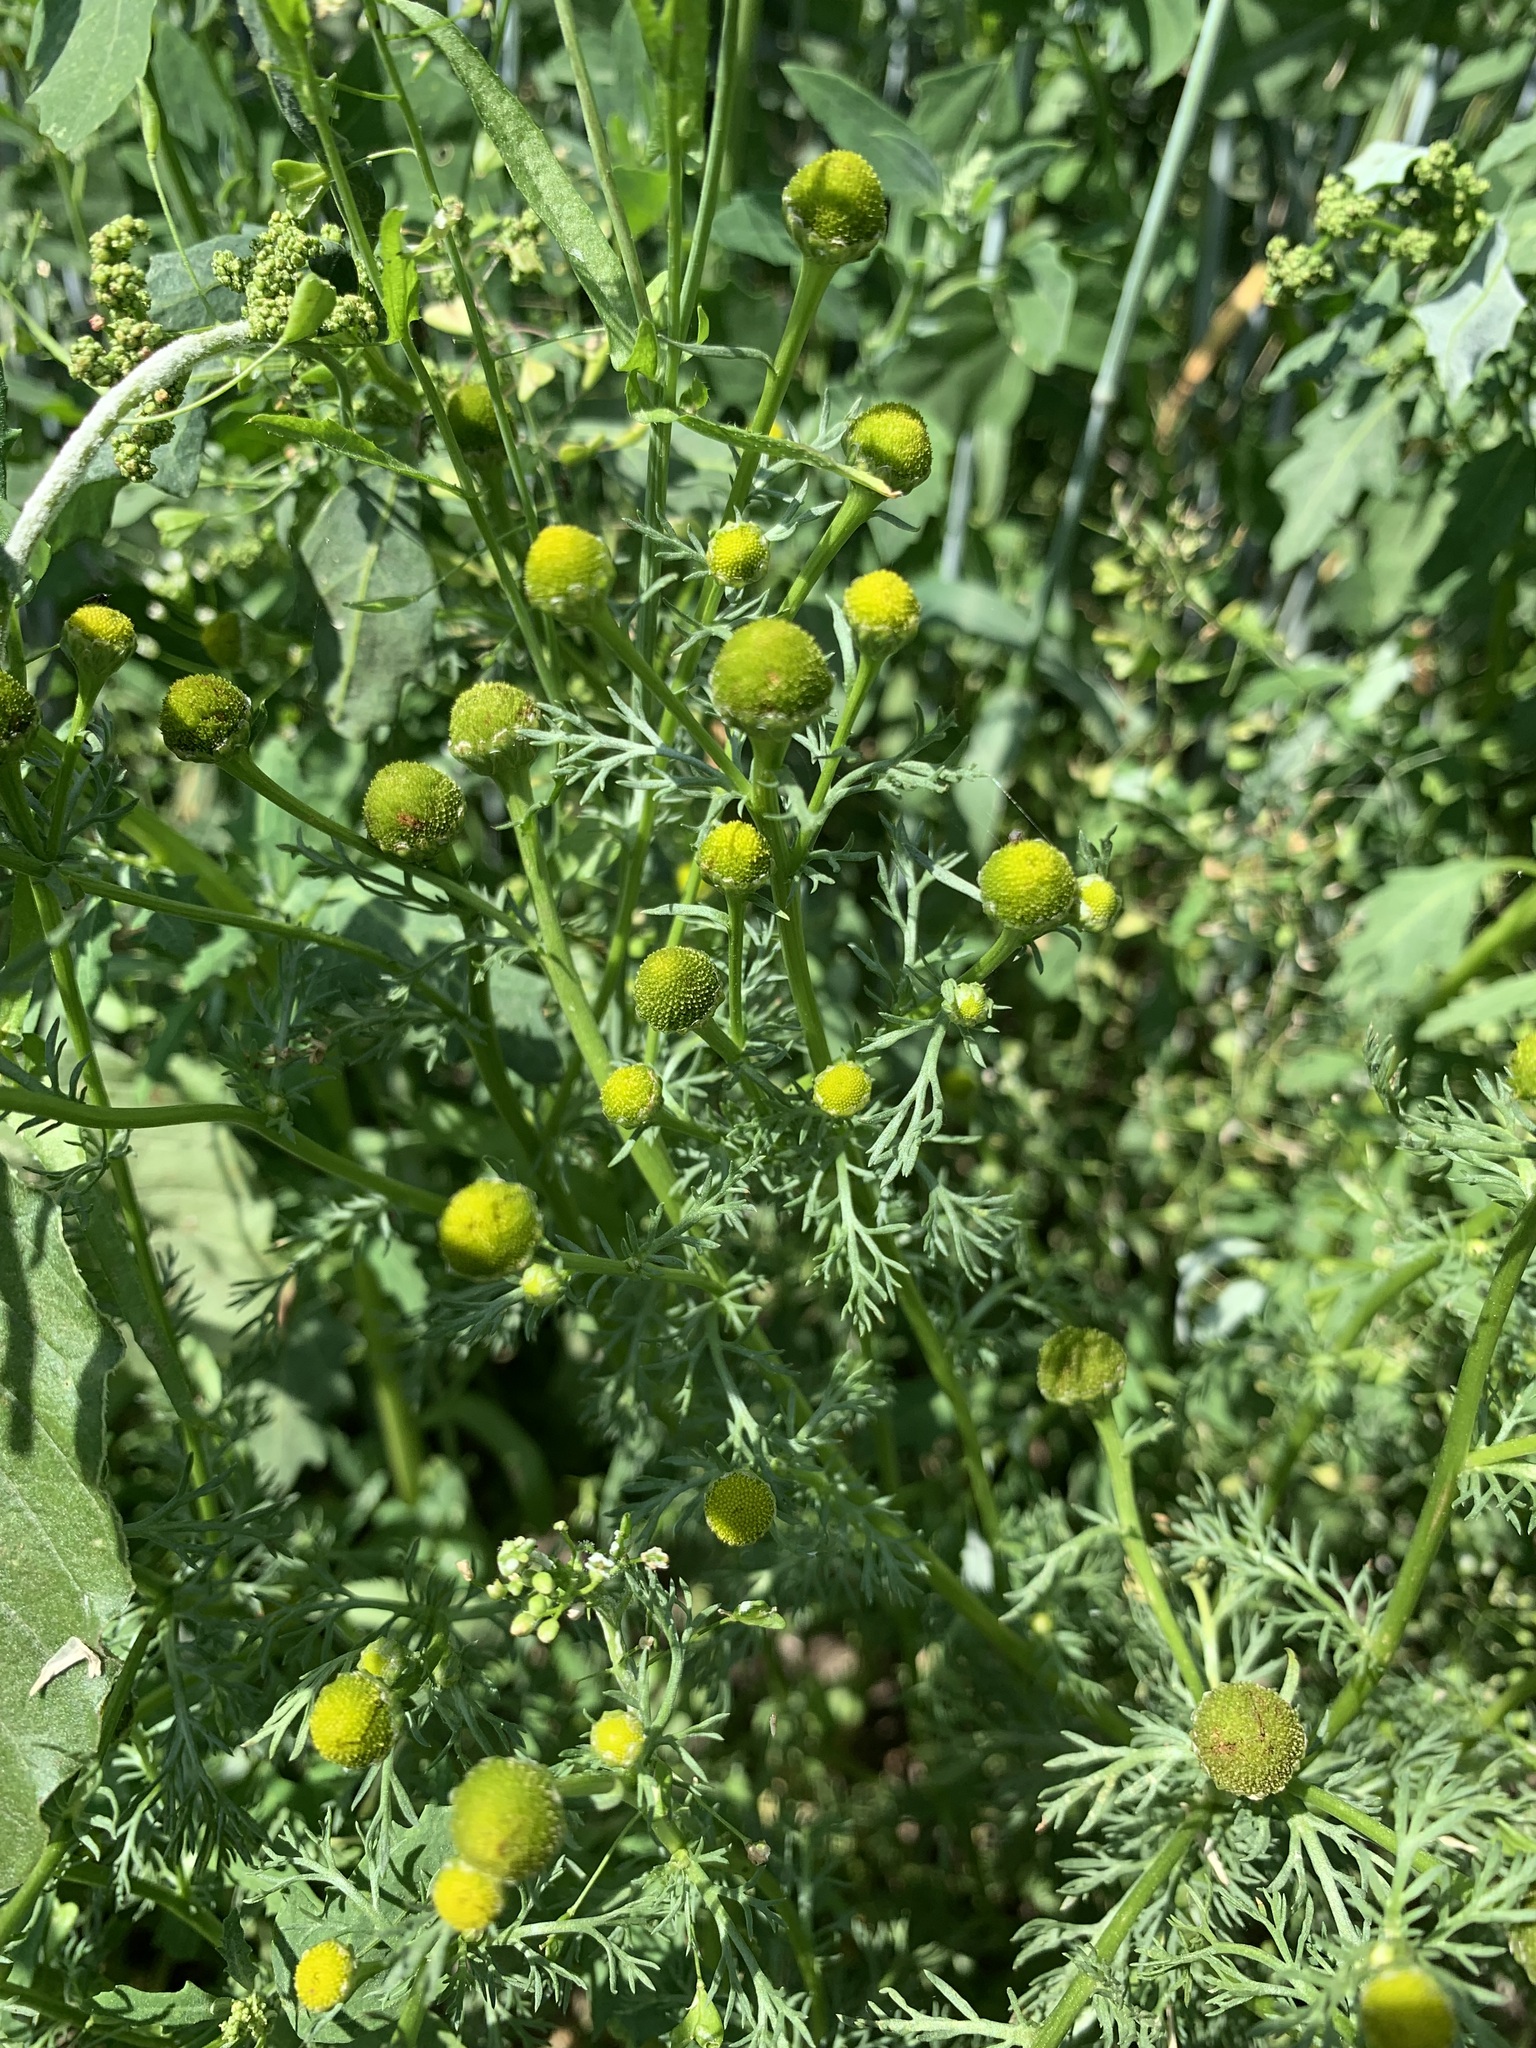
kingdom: Plantae
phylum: Tracheophyta
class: Magnoliopsida
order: Asterales
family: Asteraceae
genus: Matricaria
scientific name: Matricaria discoidea
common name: Disc mayweed
